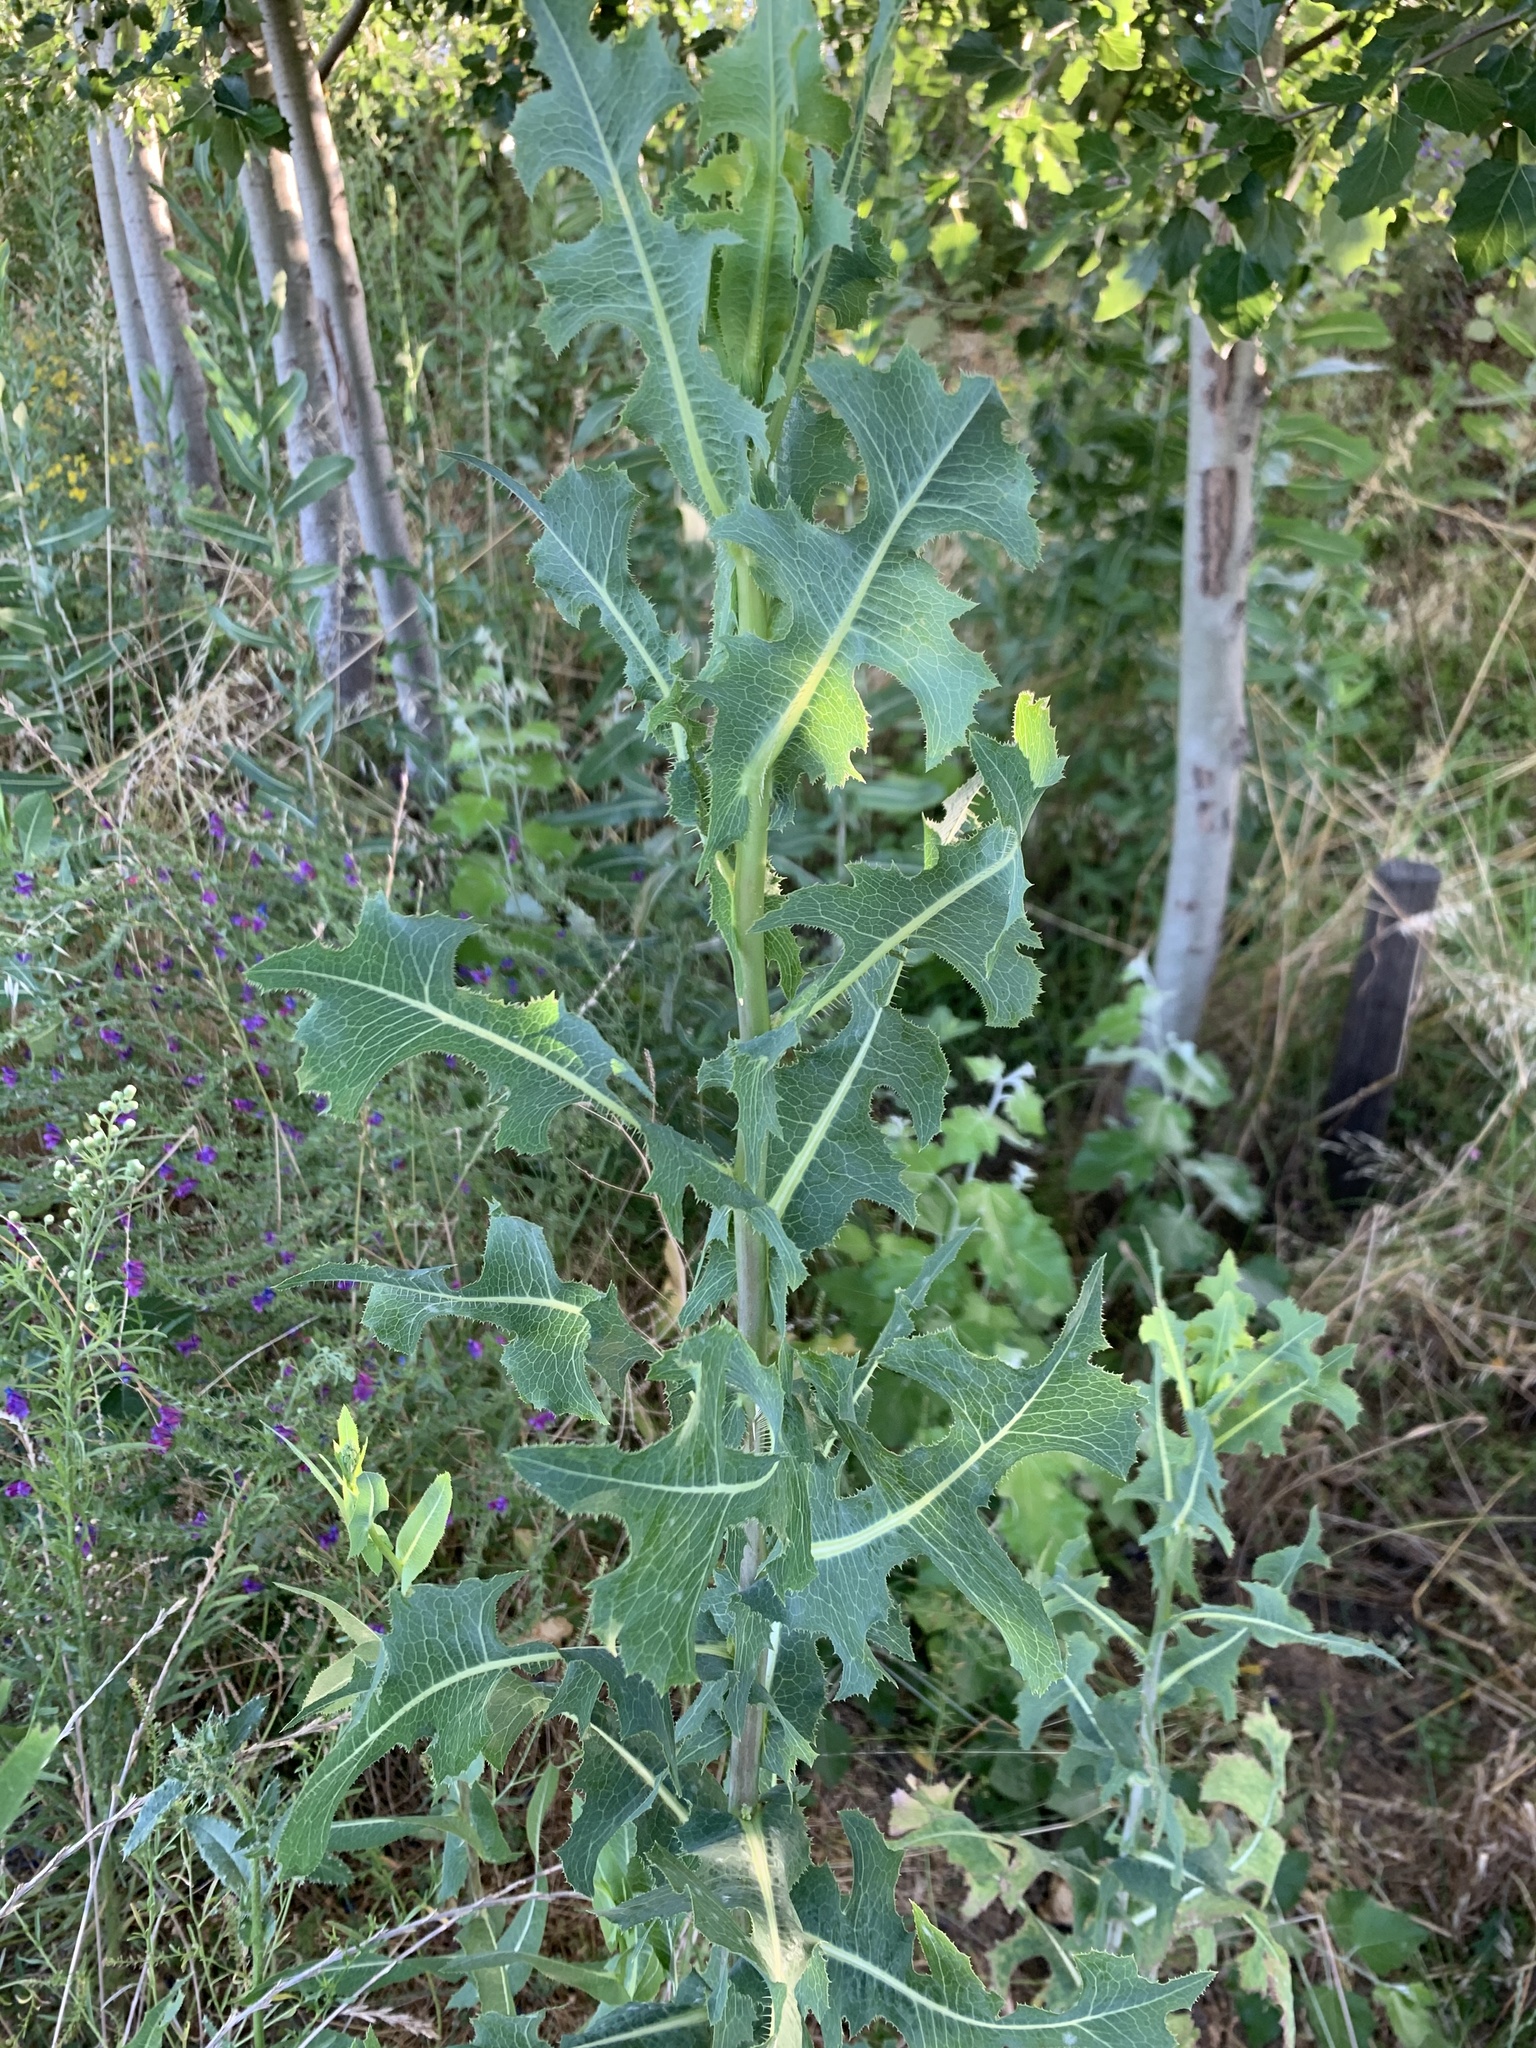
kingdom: Plantae
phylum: Tracheophyta
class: Magnoliopsida
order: Asterales
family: Asteraceae
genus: Lactuca
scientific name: Lactuca serriola
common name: Prickly lettuce
